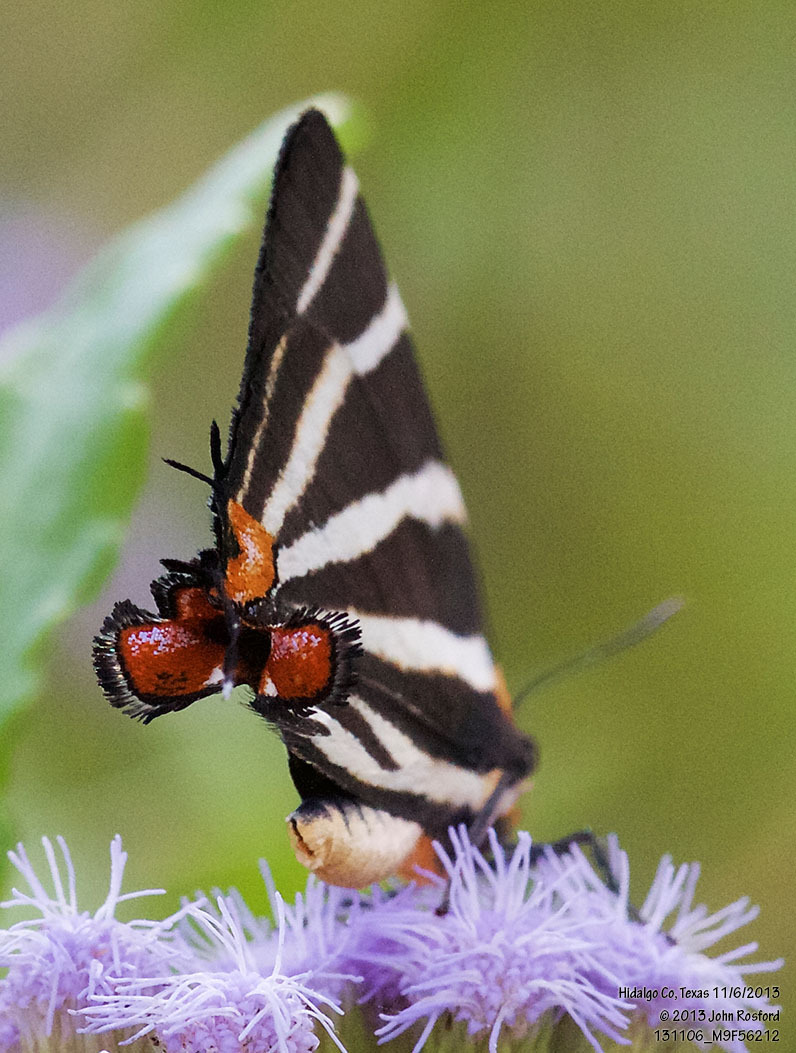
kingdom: Animalia
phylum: Arthropoda
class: Insecta
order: Lepidoptera
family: Lycaenidae
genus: Thecla
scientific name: Thecla bathildis
